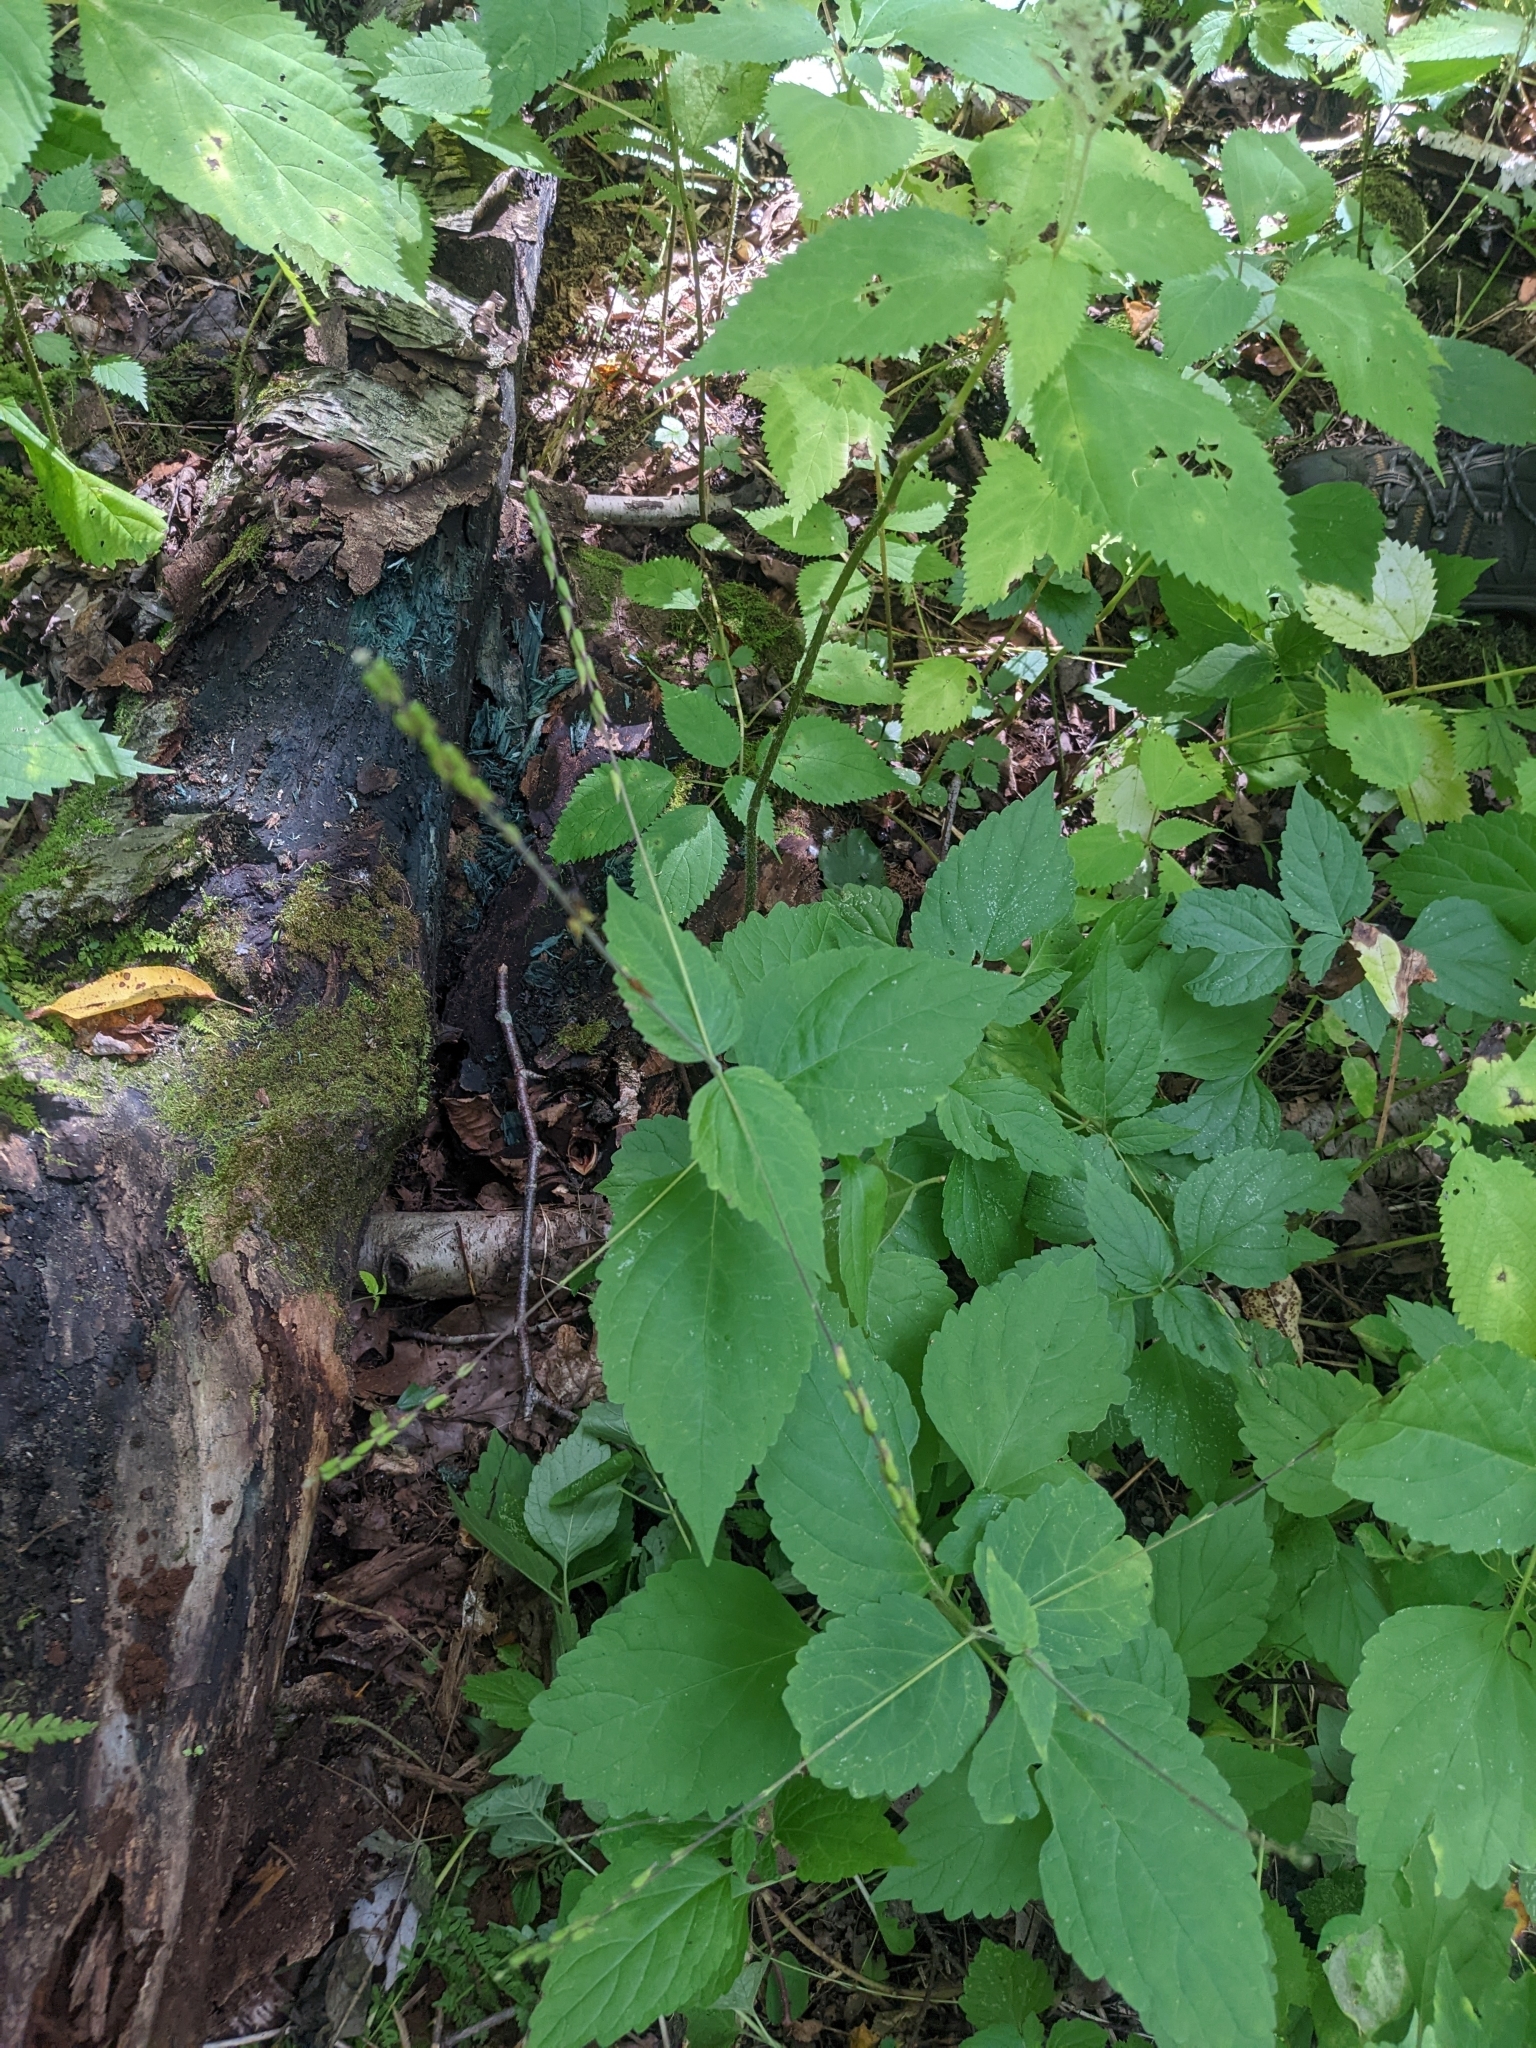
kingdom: Plantae
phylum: Tracheophyta
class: Magnoliopsida
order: Lamiales
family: Phrymaceae
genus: Phryma
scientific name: Phryma leptostachya
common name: American lopseed
